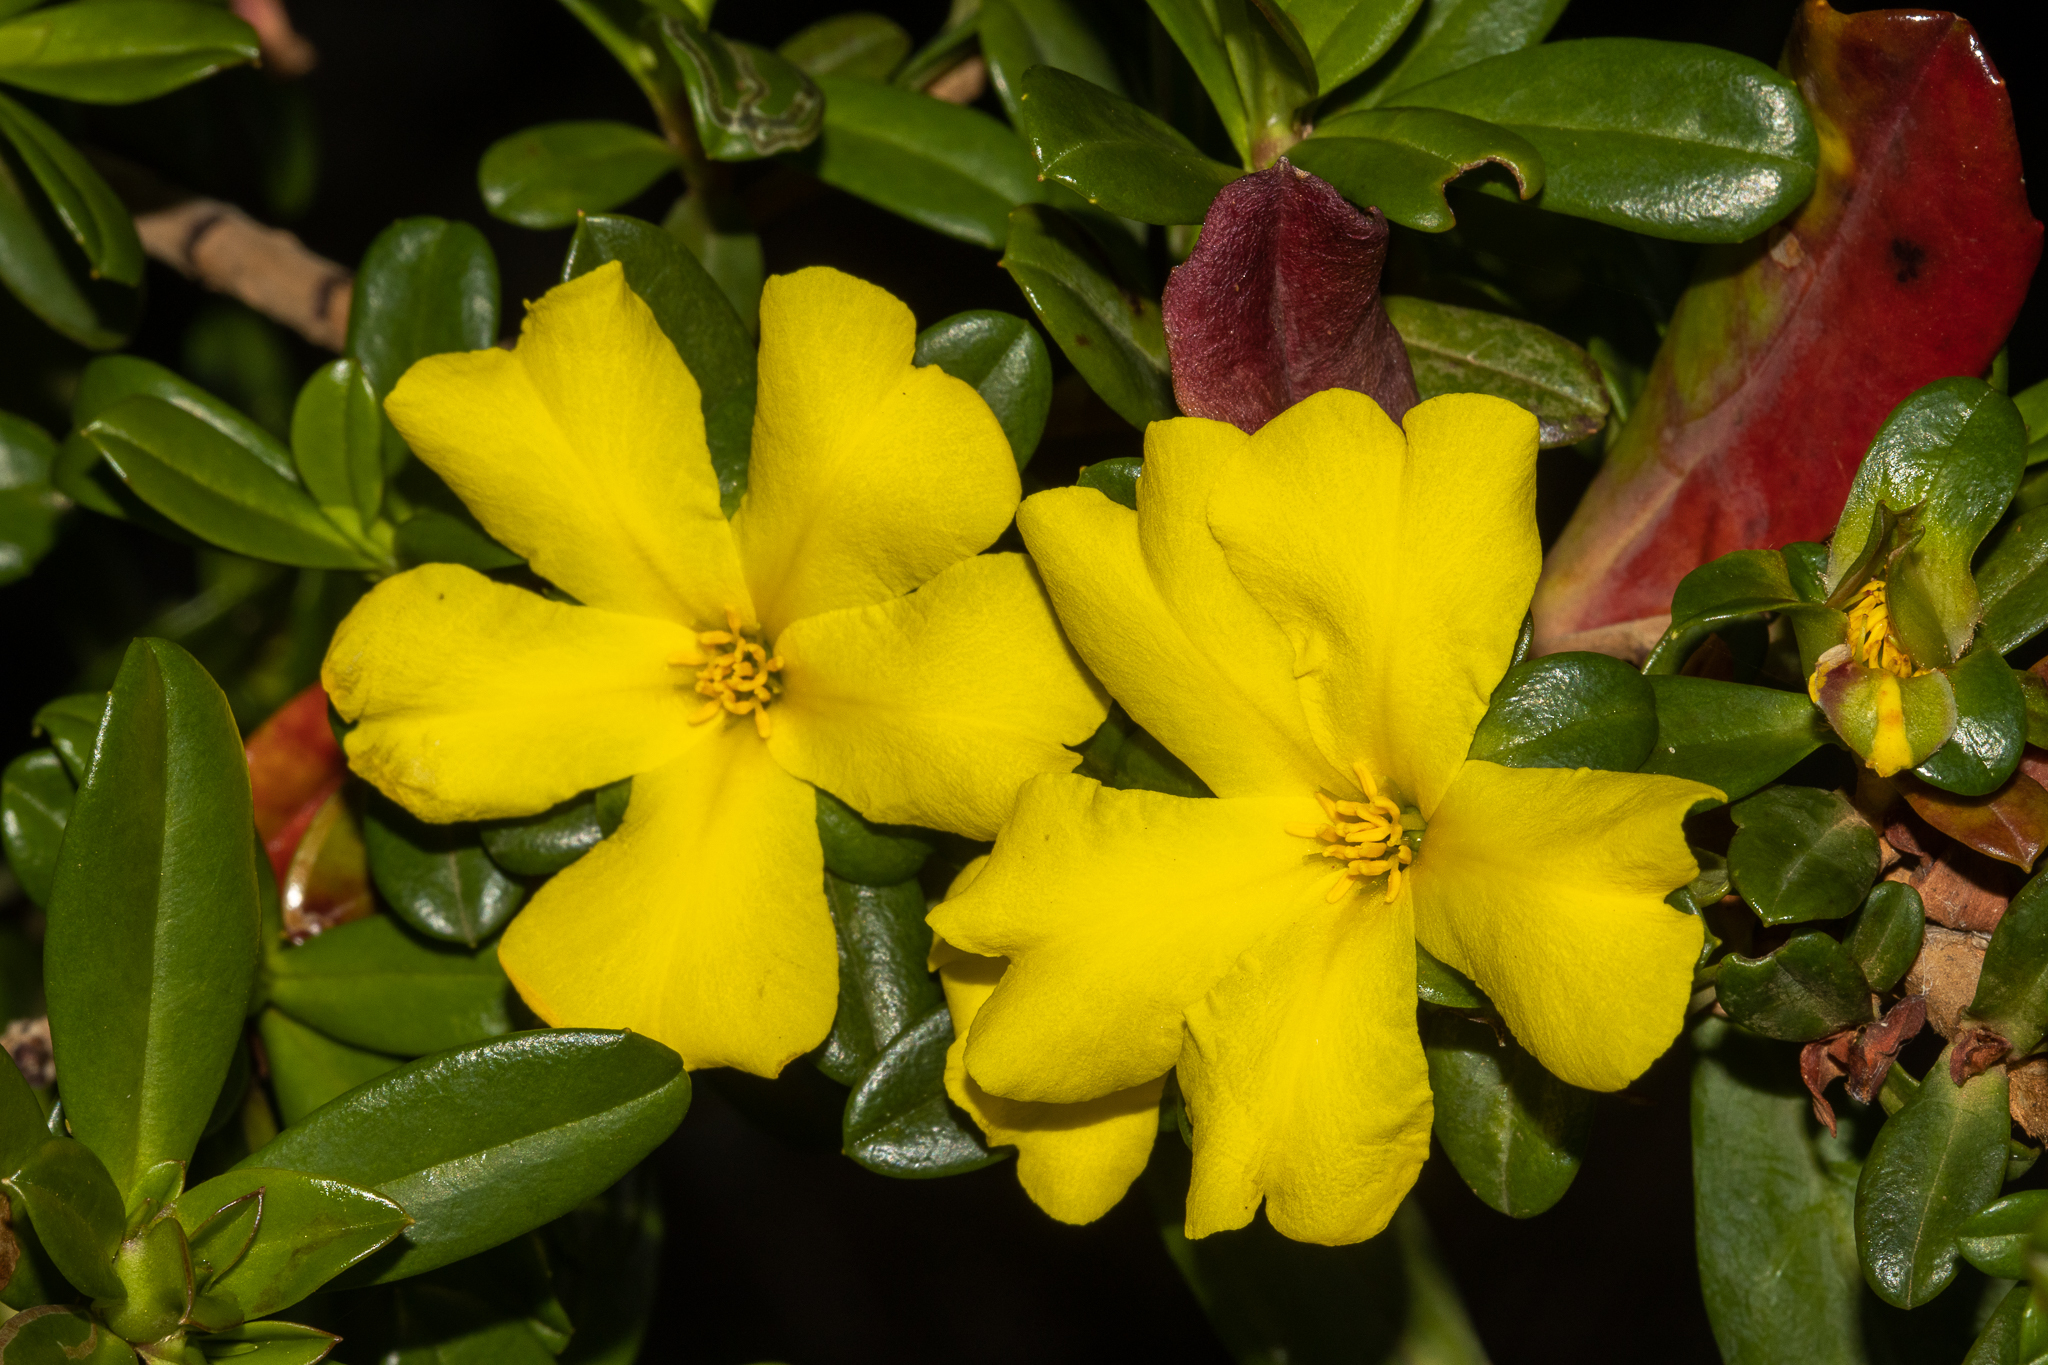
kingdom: Plantae
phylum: Tracheophyta
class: Magnoliopsida
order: Dilleniales
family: Dilleniaceae
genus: Hibbertia
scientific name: Hibbertia cuneiformis
